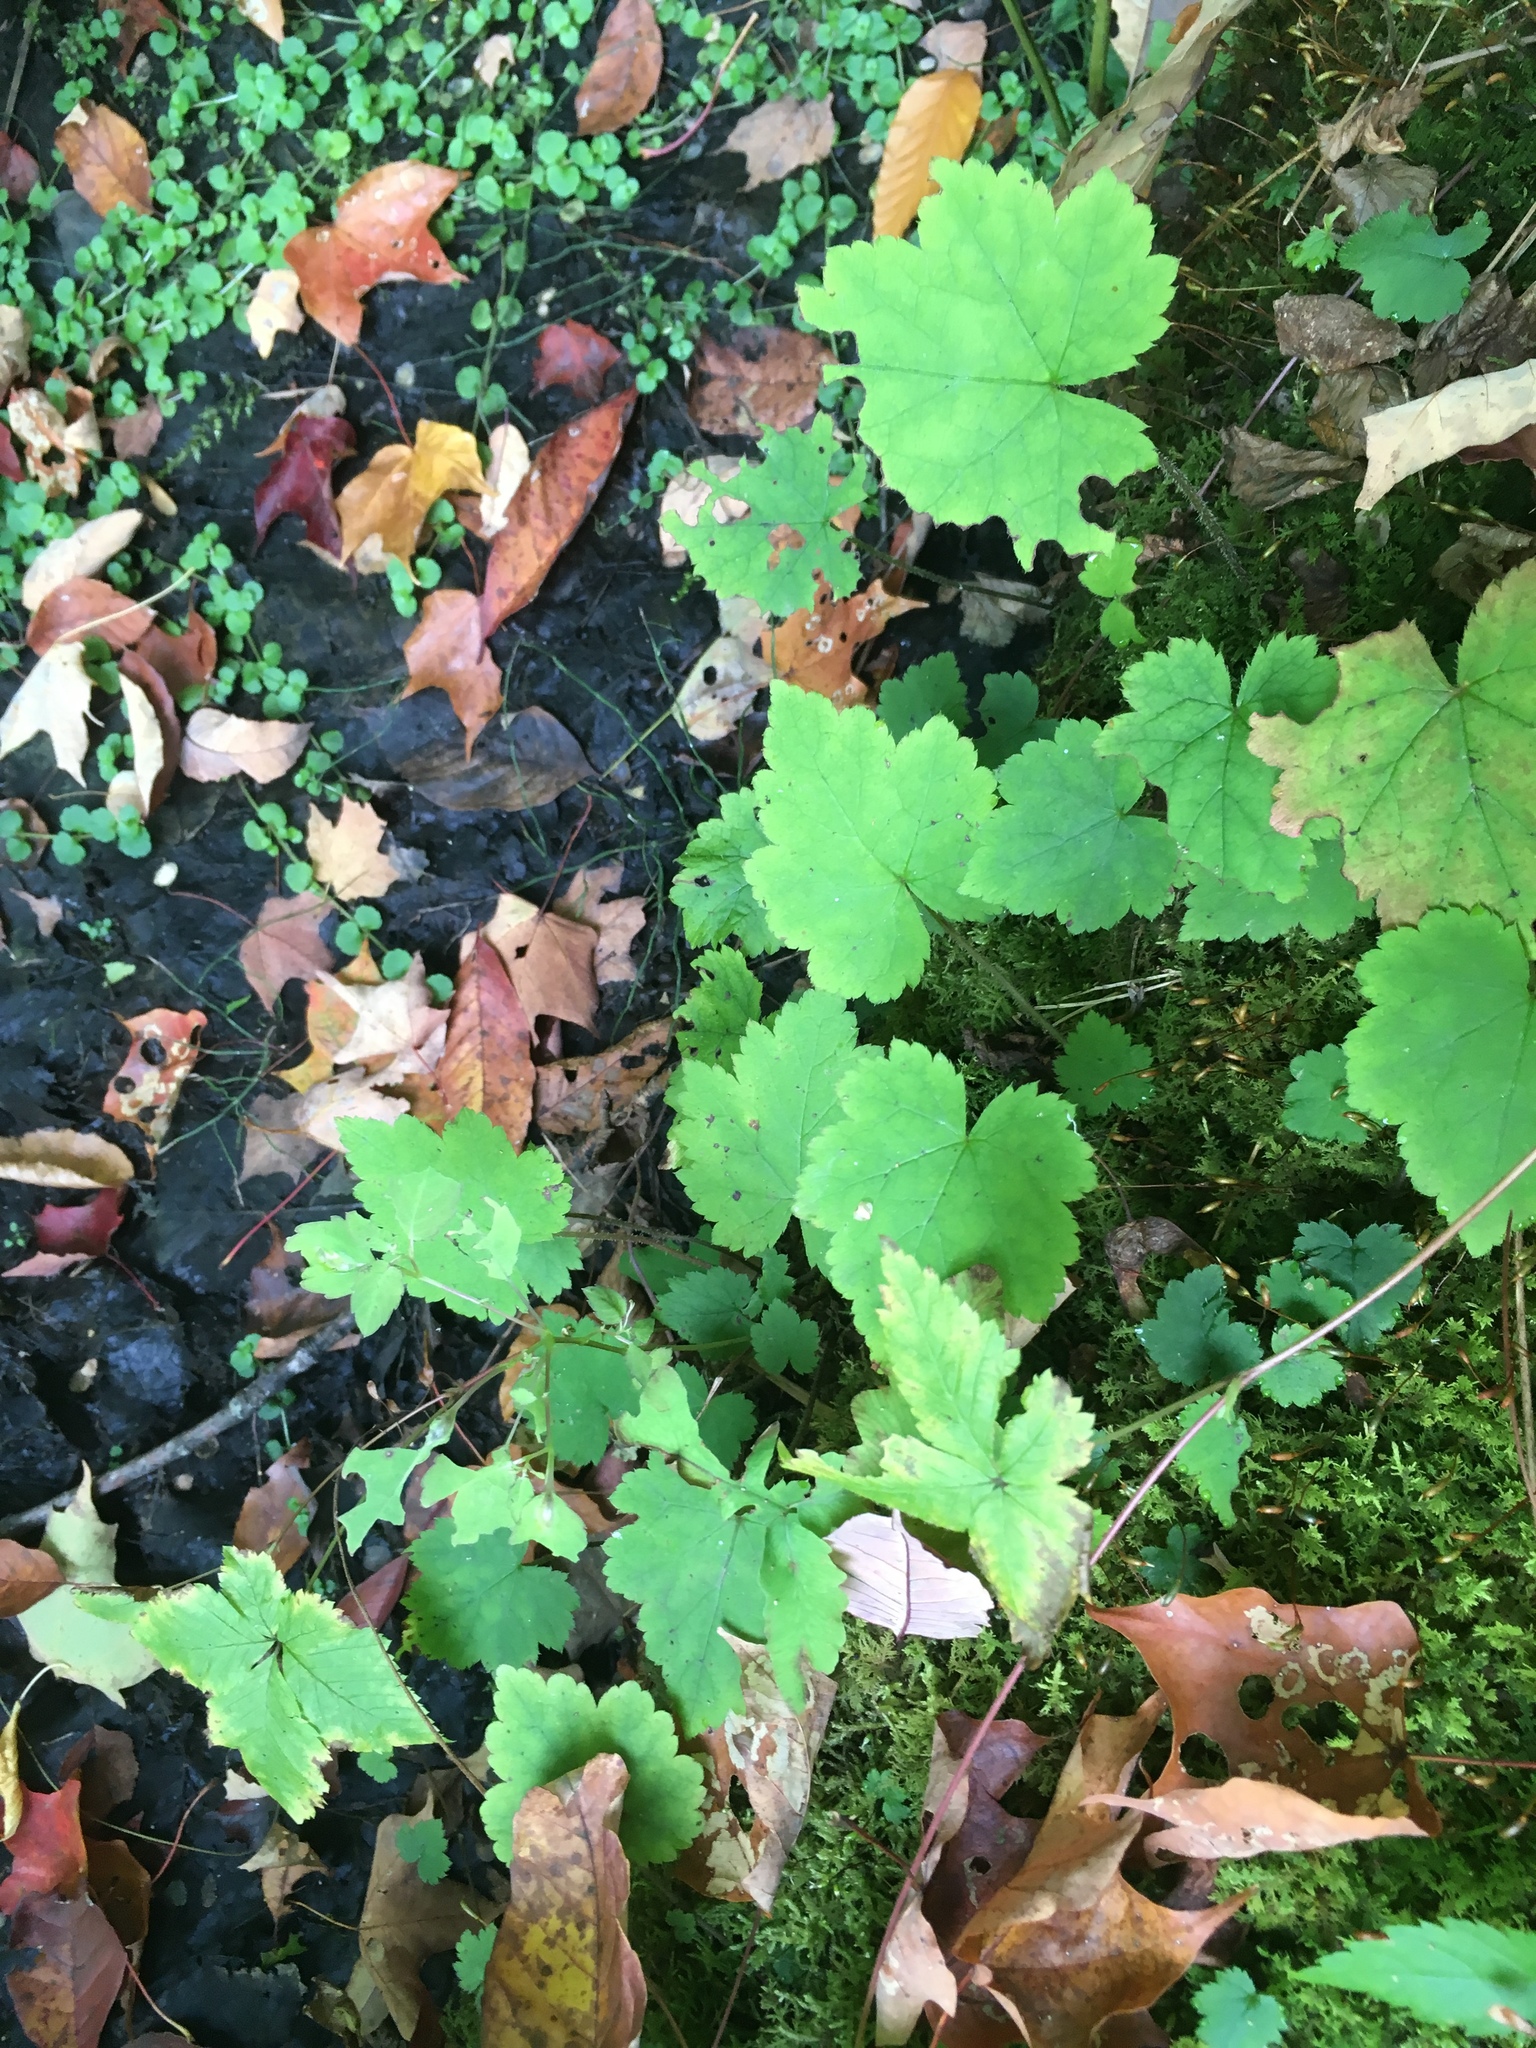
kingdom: Plantae
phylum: Tracheophyta
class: Magnoliopsida
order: Saxifragales
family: Saxifragaceae
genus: Tiarella
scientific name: Tiarella stolonifera
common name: Stoloniferous foamflower
